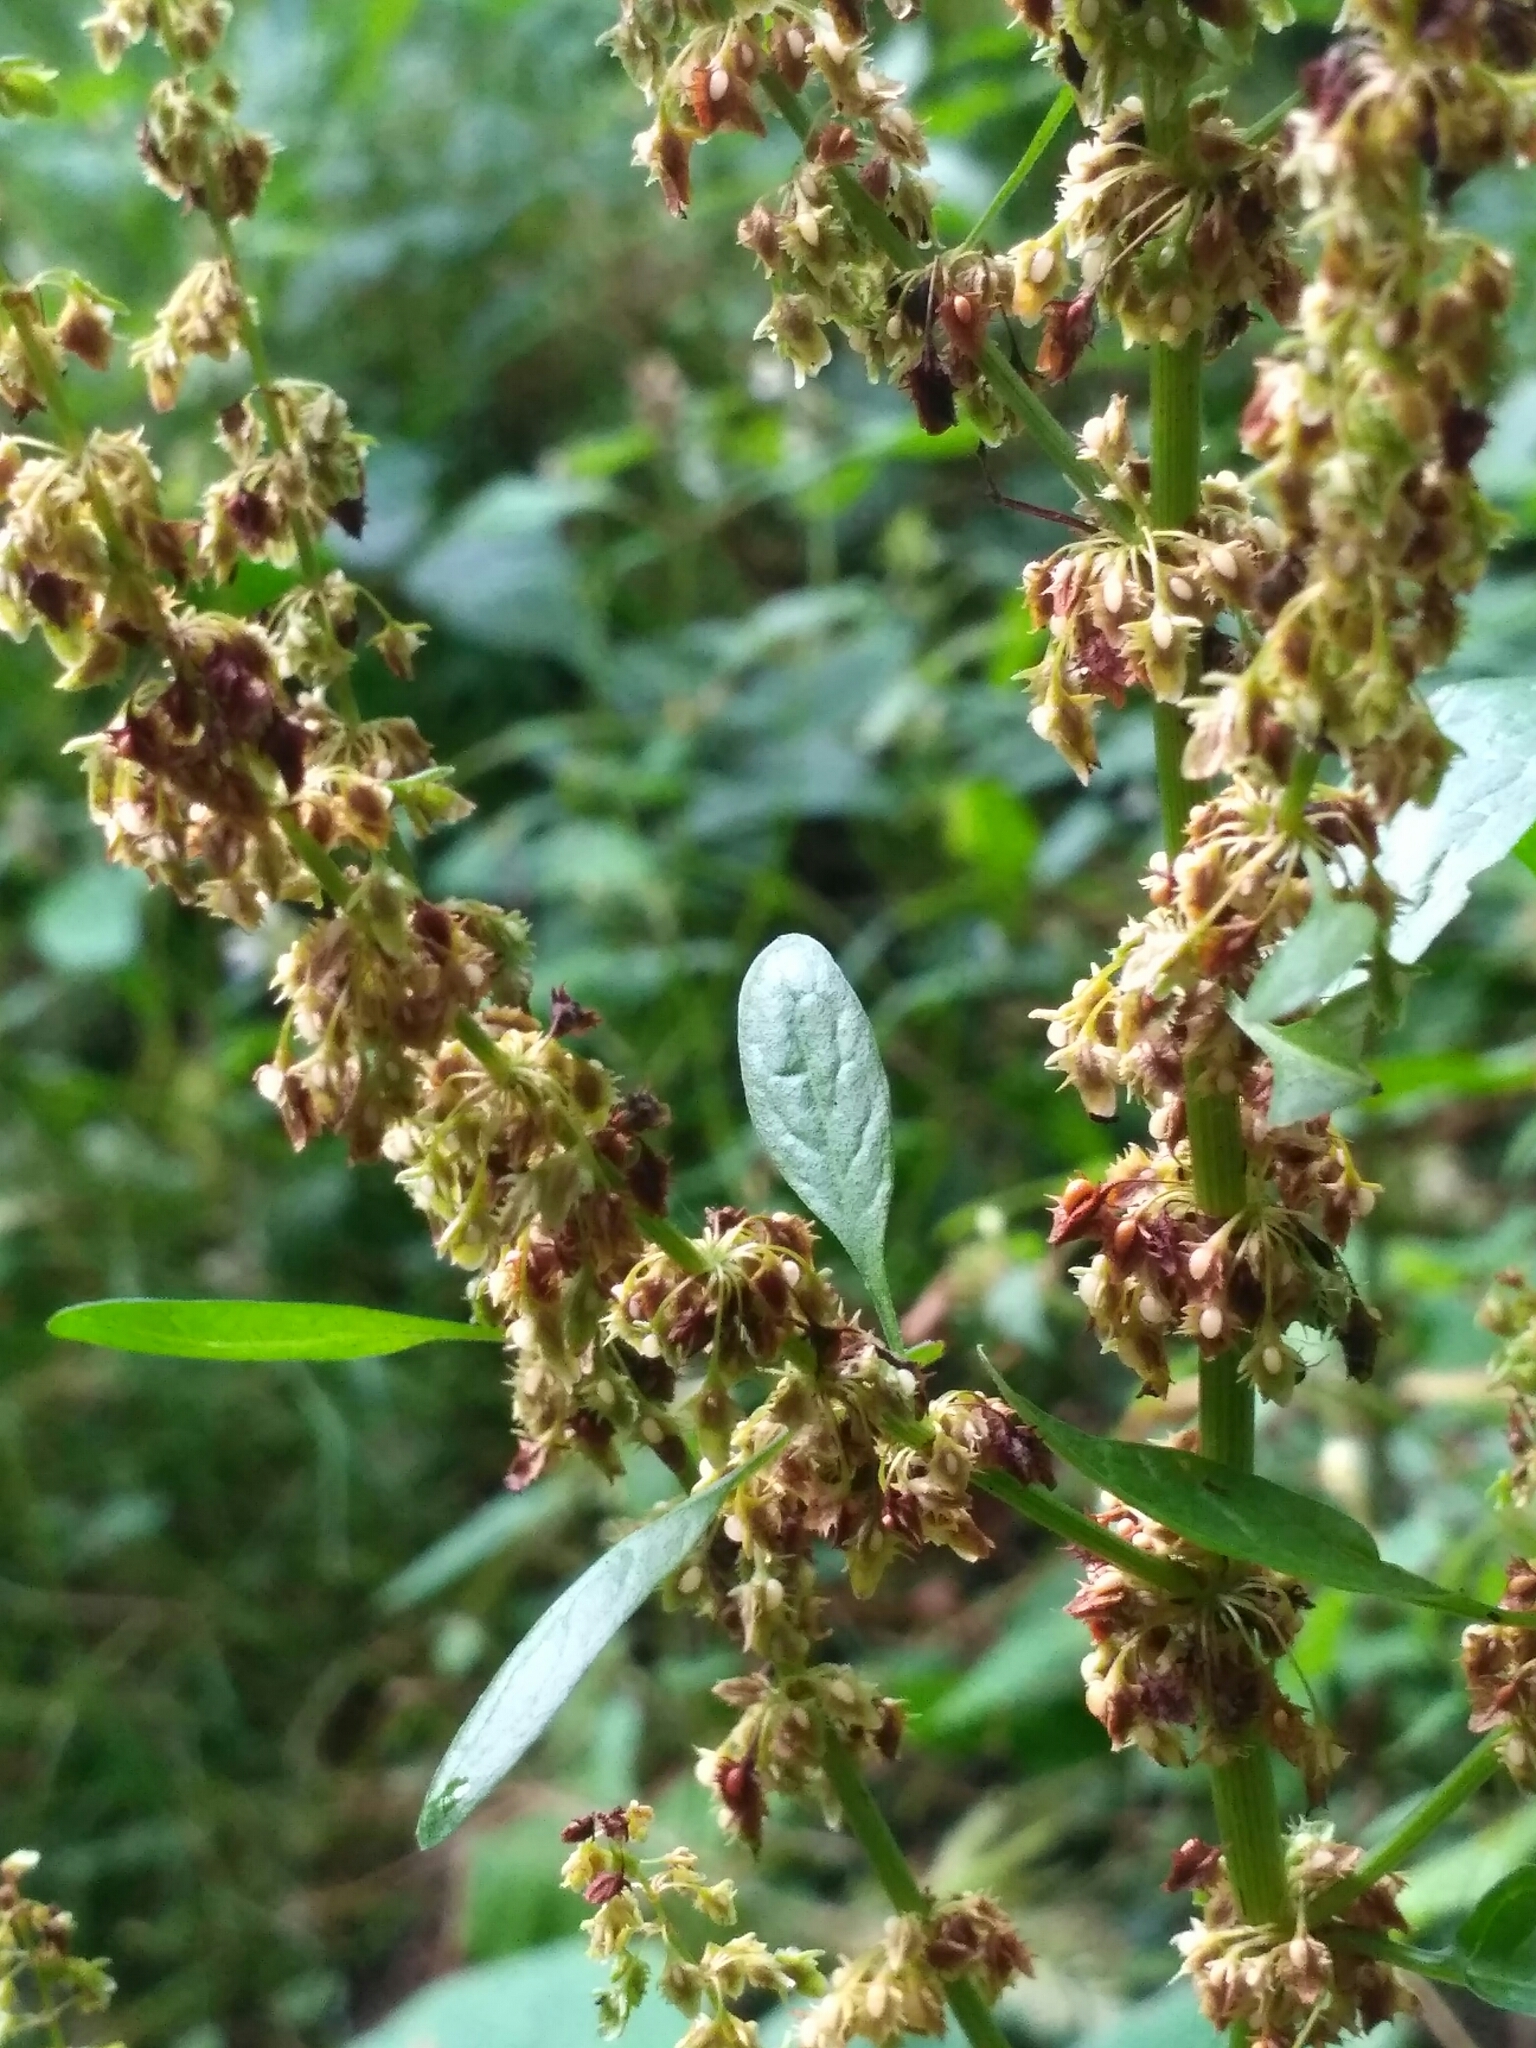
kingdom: Plantae
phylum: Tracheophyta
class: Magnoliopsida
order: Caryophyllales
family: Polygonaceae
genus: Rumex
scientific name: Rumex obtusifolius
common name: Bitter dock
